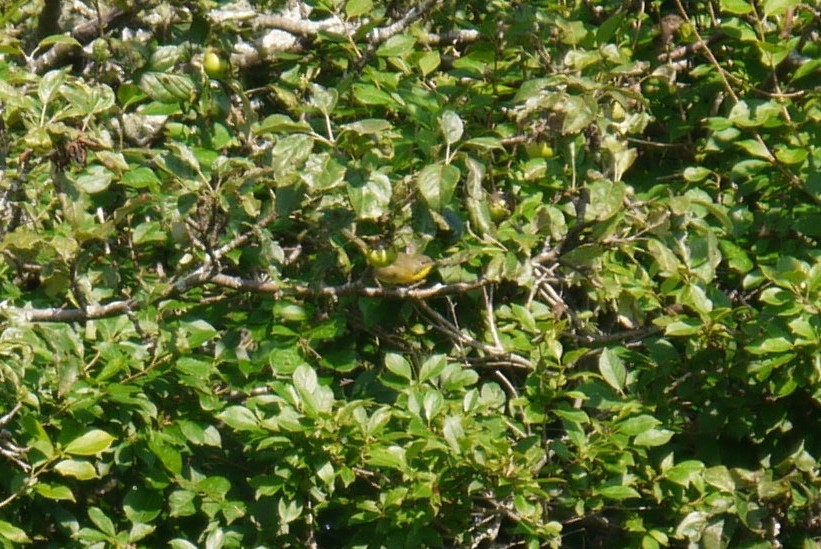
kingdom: Animalia
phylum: Chordata
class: Aves
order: Passeriformes
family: Parulidae
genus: Geothlypis
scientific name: Geothlypis trichas
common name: Common yellowthroat
